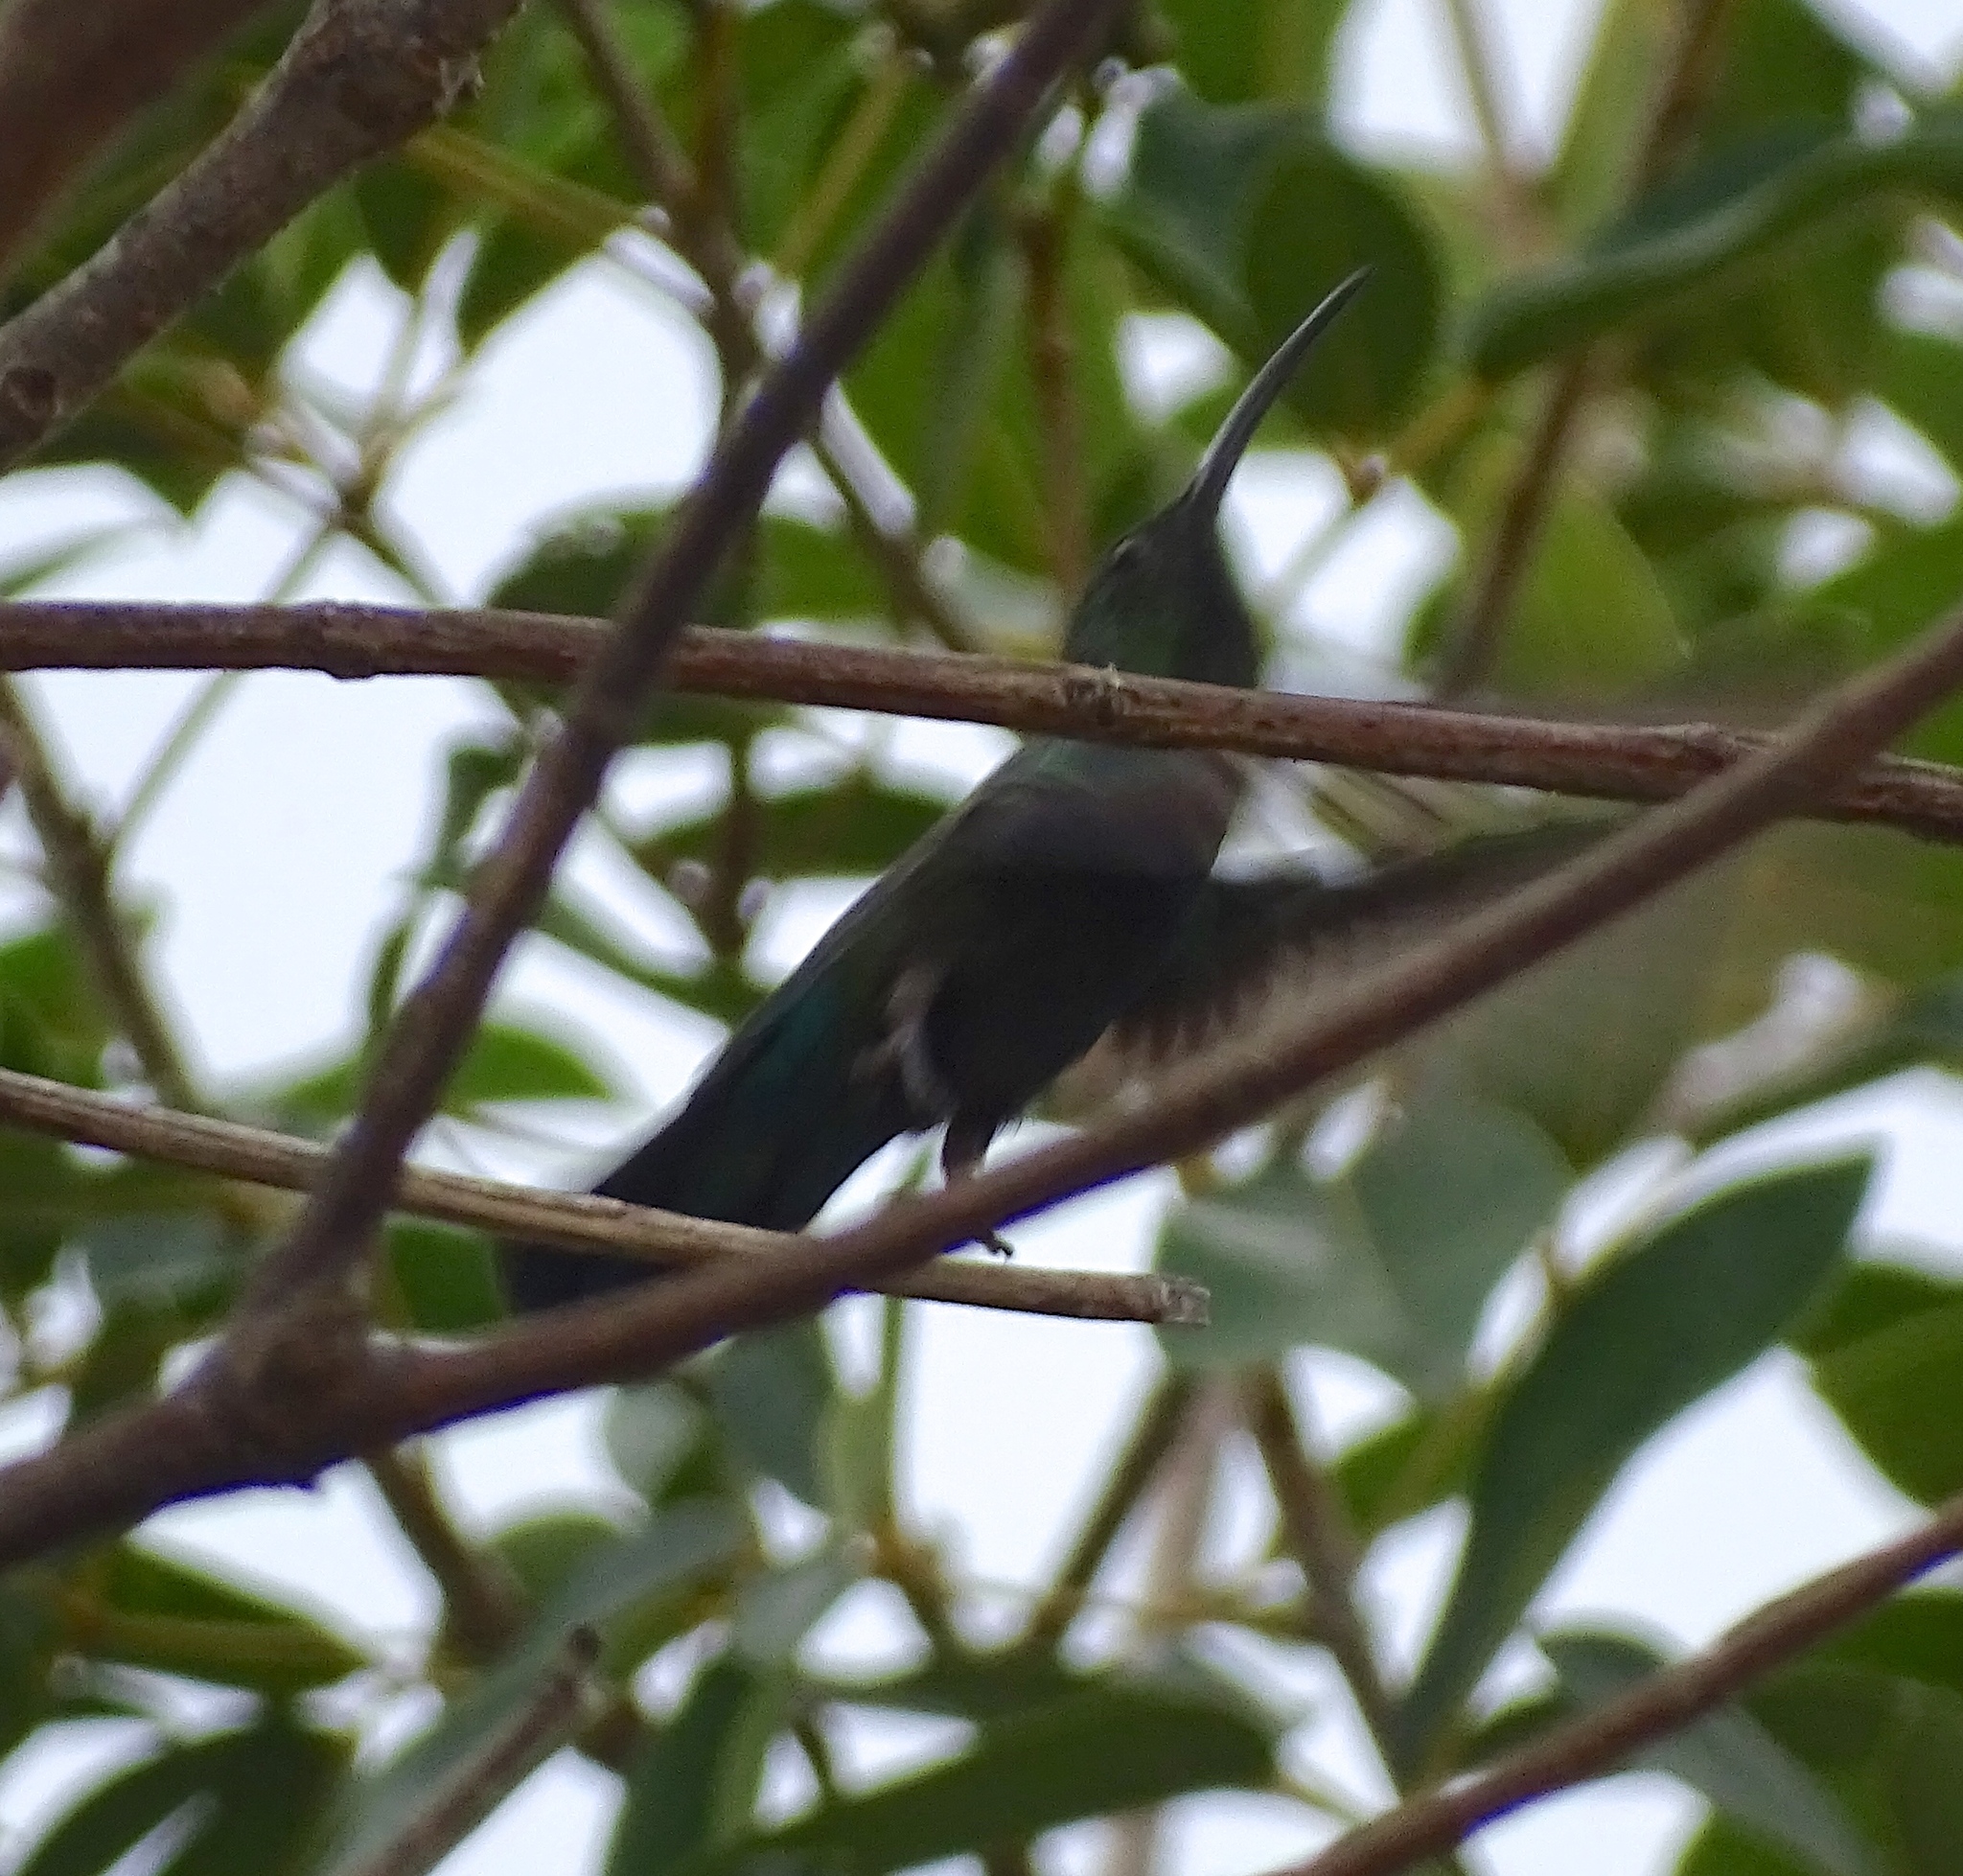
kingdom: Animalia
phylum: Chordata
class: Aves
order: Apodiformes
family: Trochilidae
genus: Eulampis
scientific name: Eulampis holosericeus
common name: Green-throated carib
